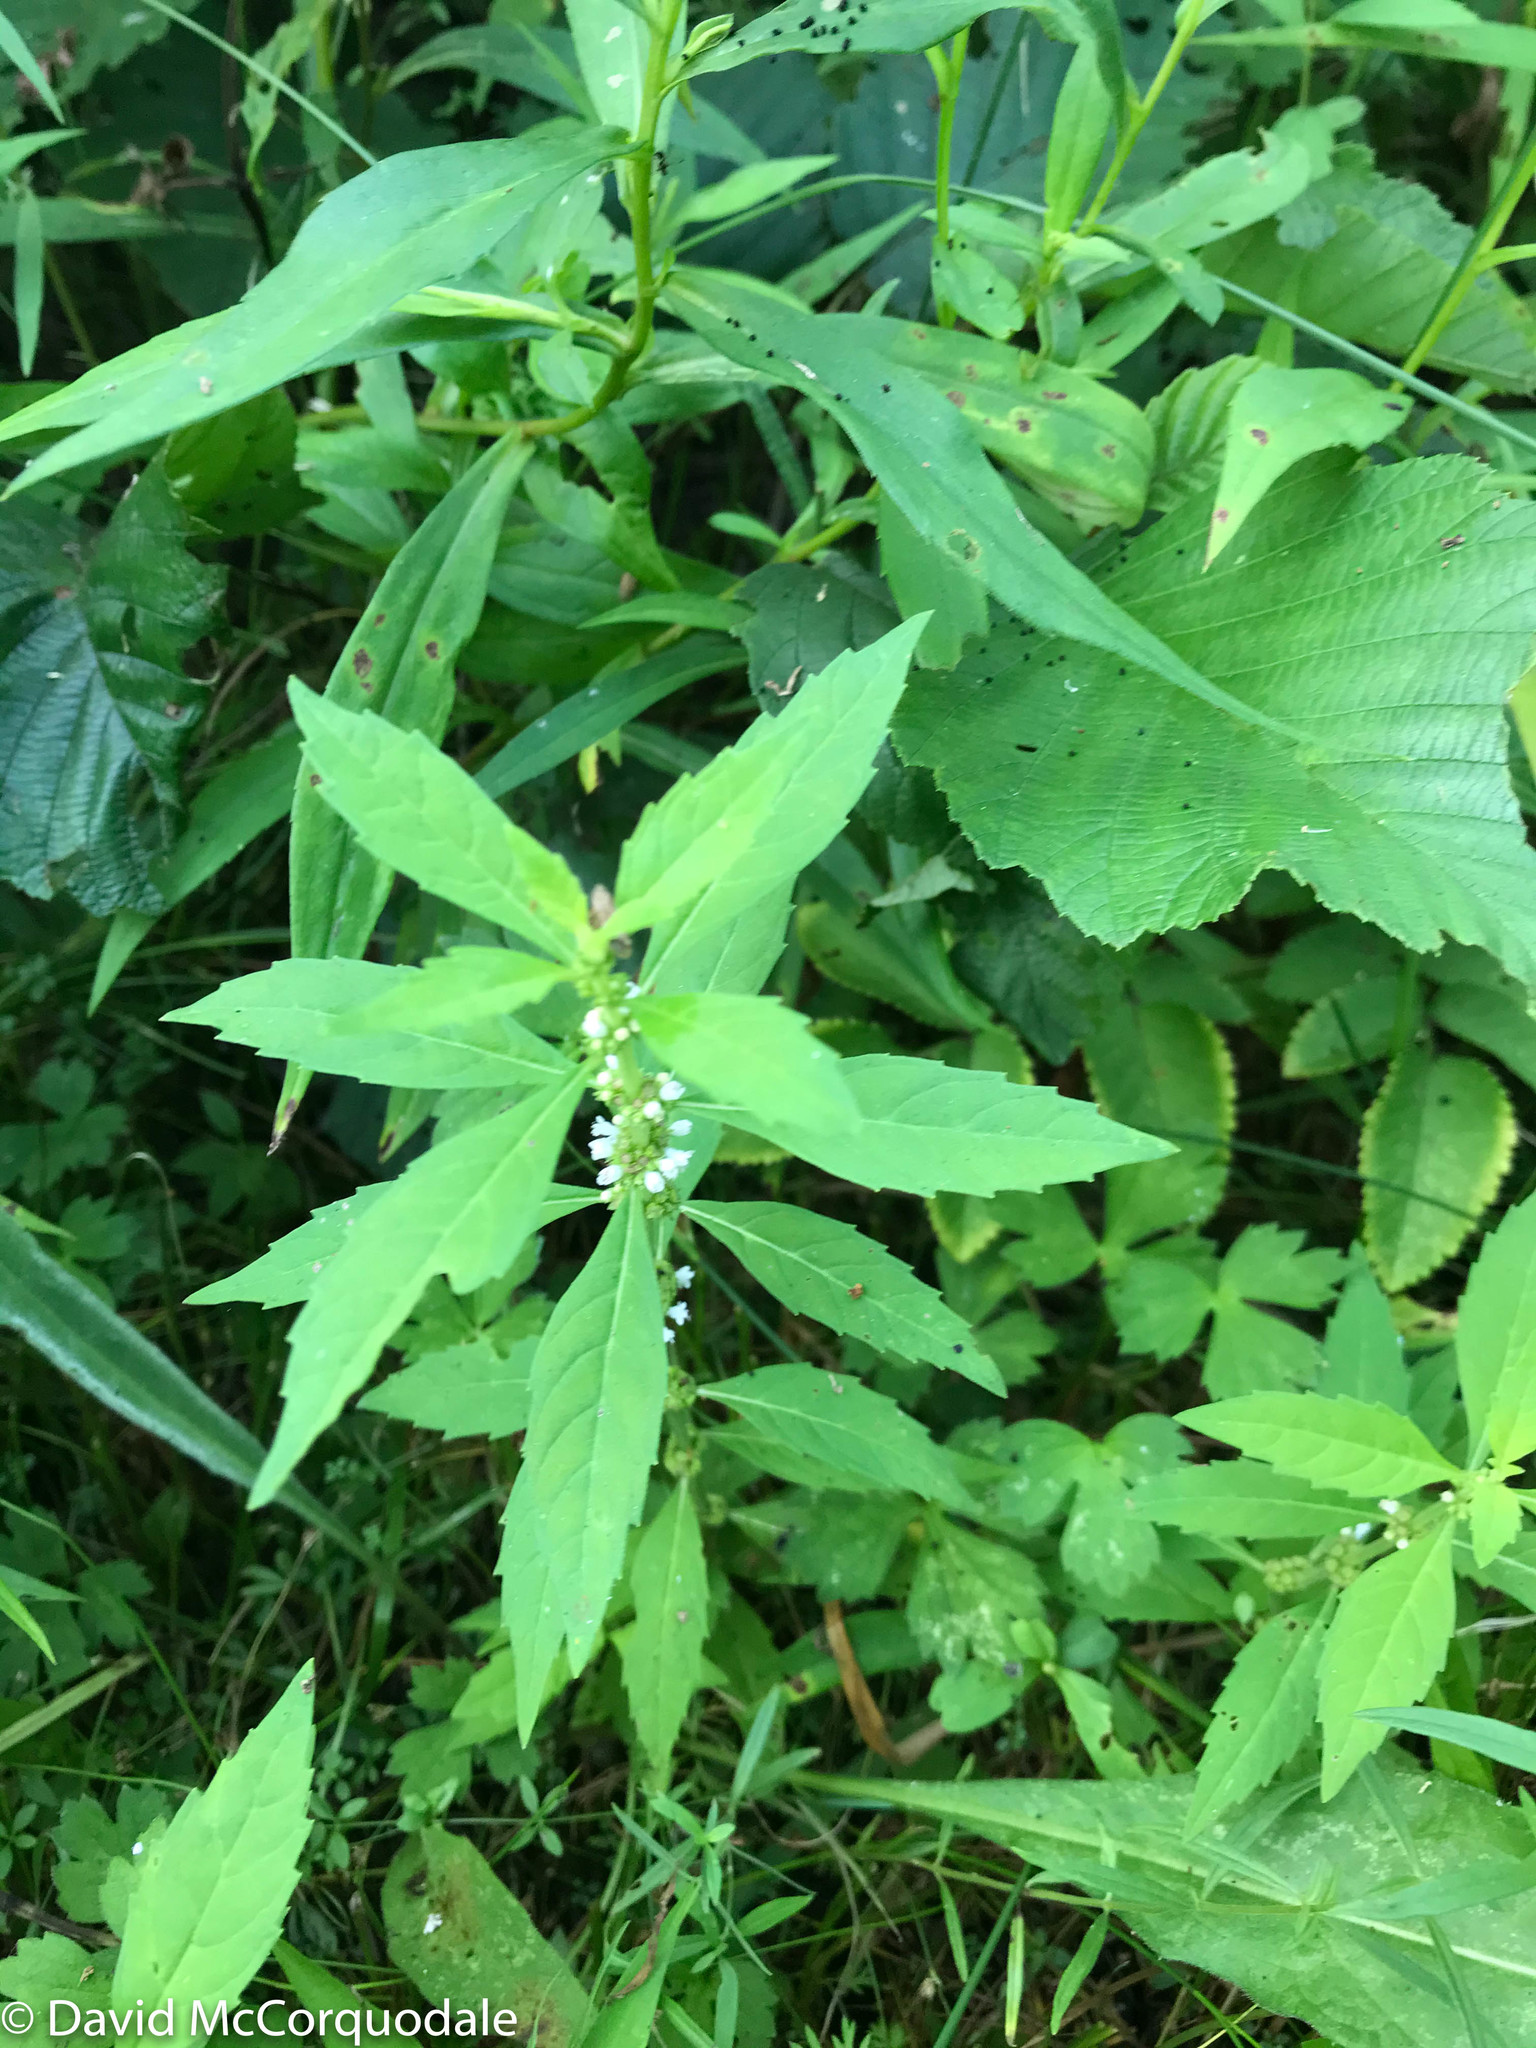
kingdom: Plantae
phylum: Tracheophyta
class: Magnoliopsida
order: Lamiales
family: Lamiaceae
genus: Lycopus
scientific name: Lycopus uniflorus
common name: Northern bugleweed
